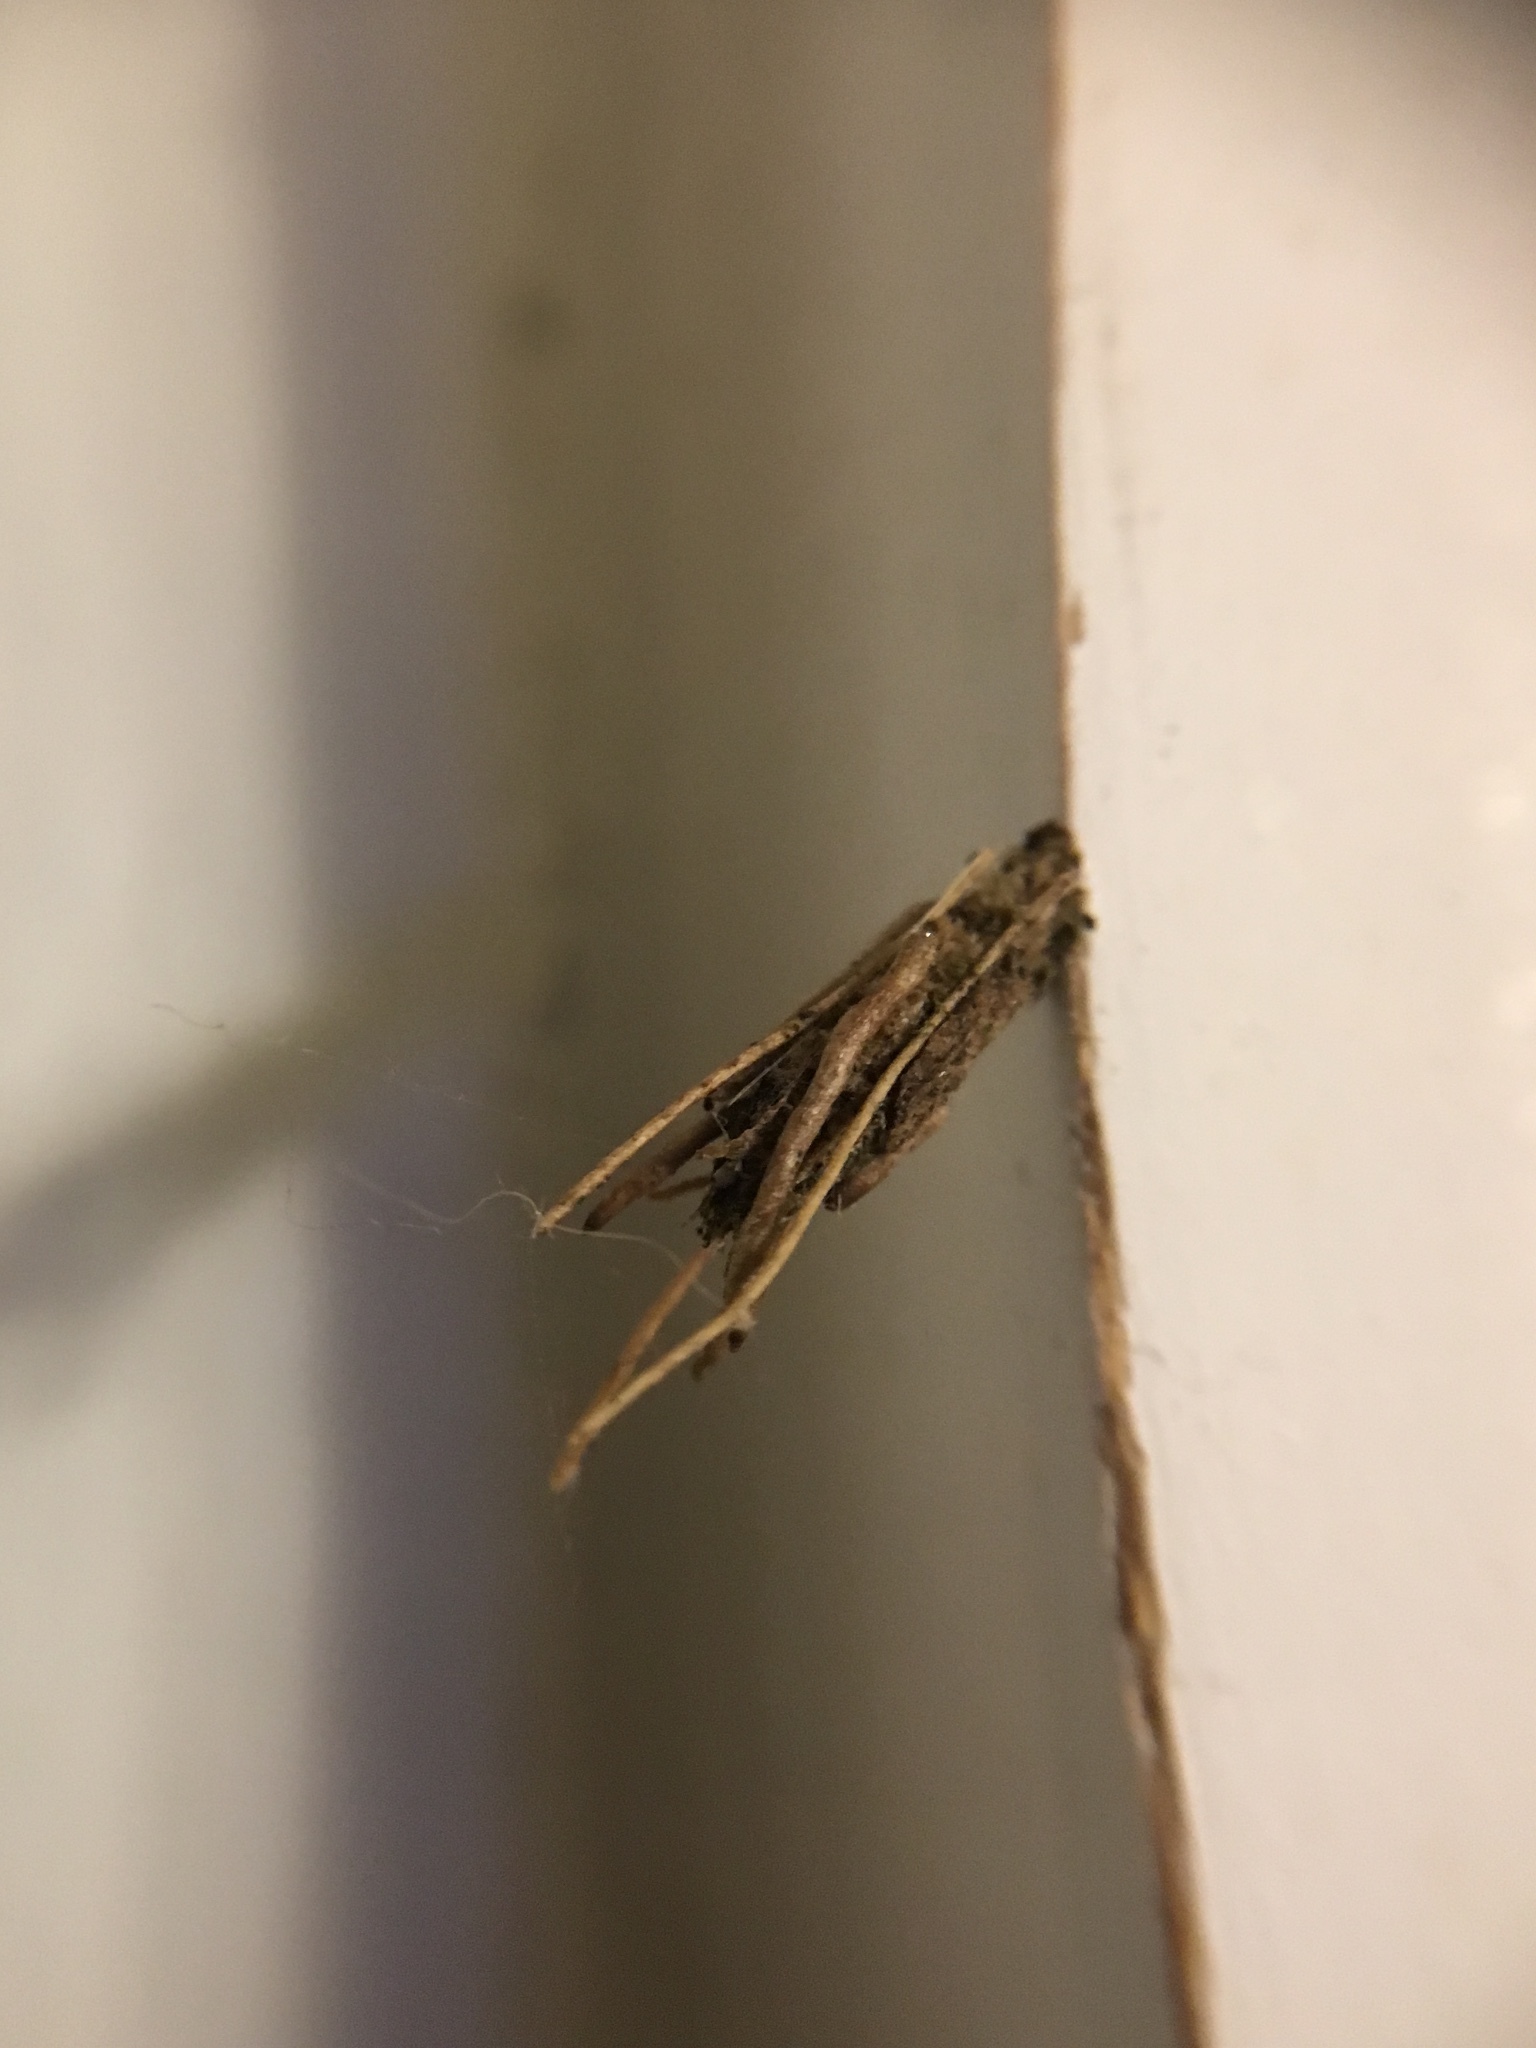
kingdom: Animalia
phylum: Arthropoda
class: Insecta
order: Lepidoptera
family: Psychidae
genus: Psyche
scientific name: Psyche casta
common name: Common sweep
